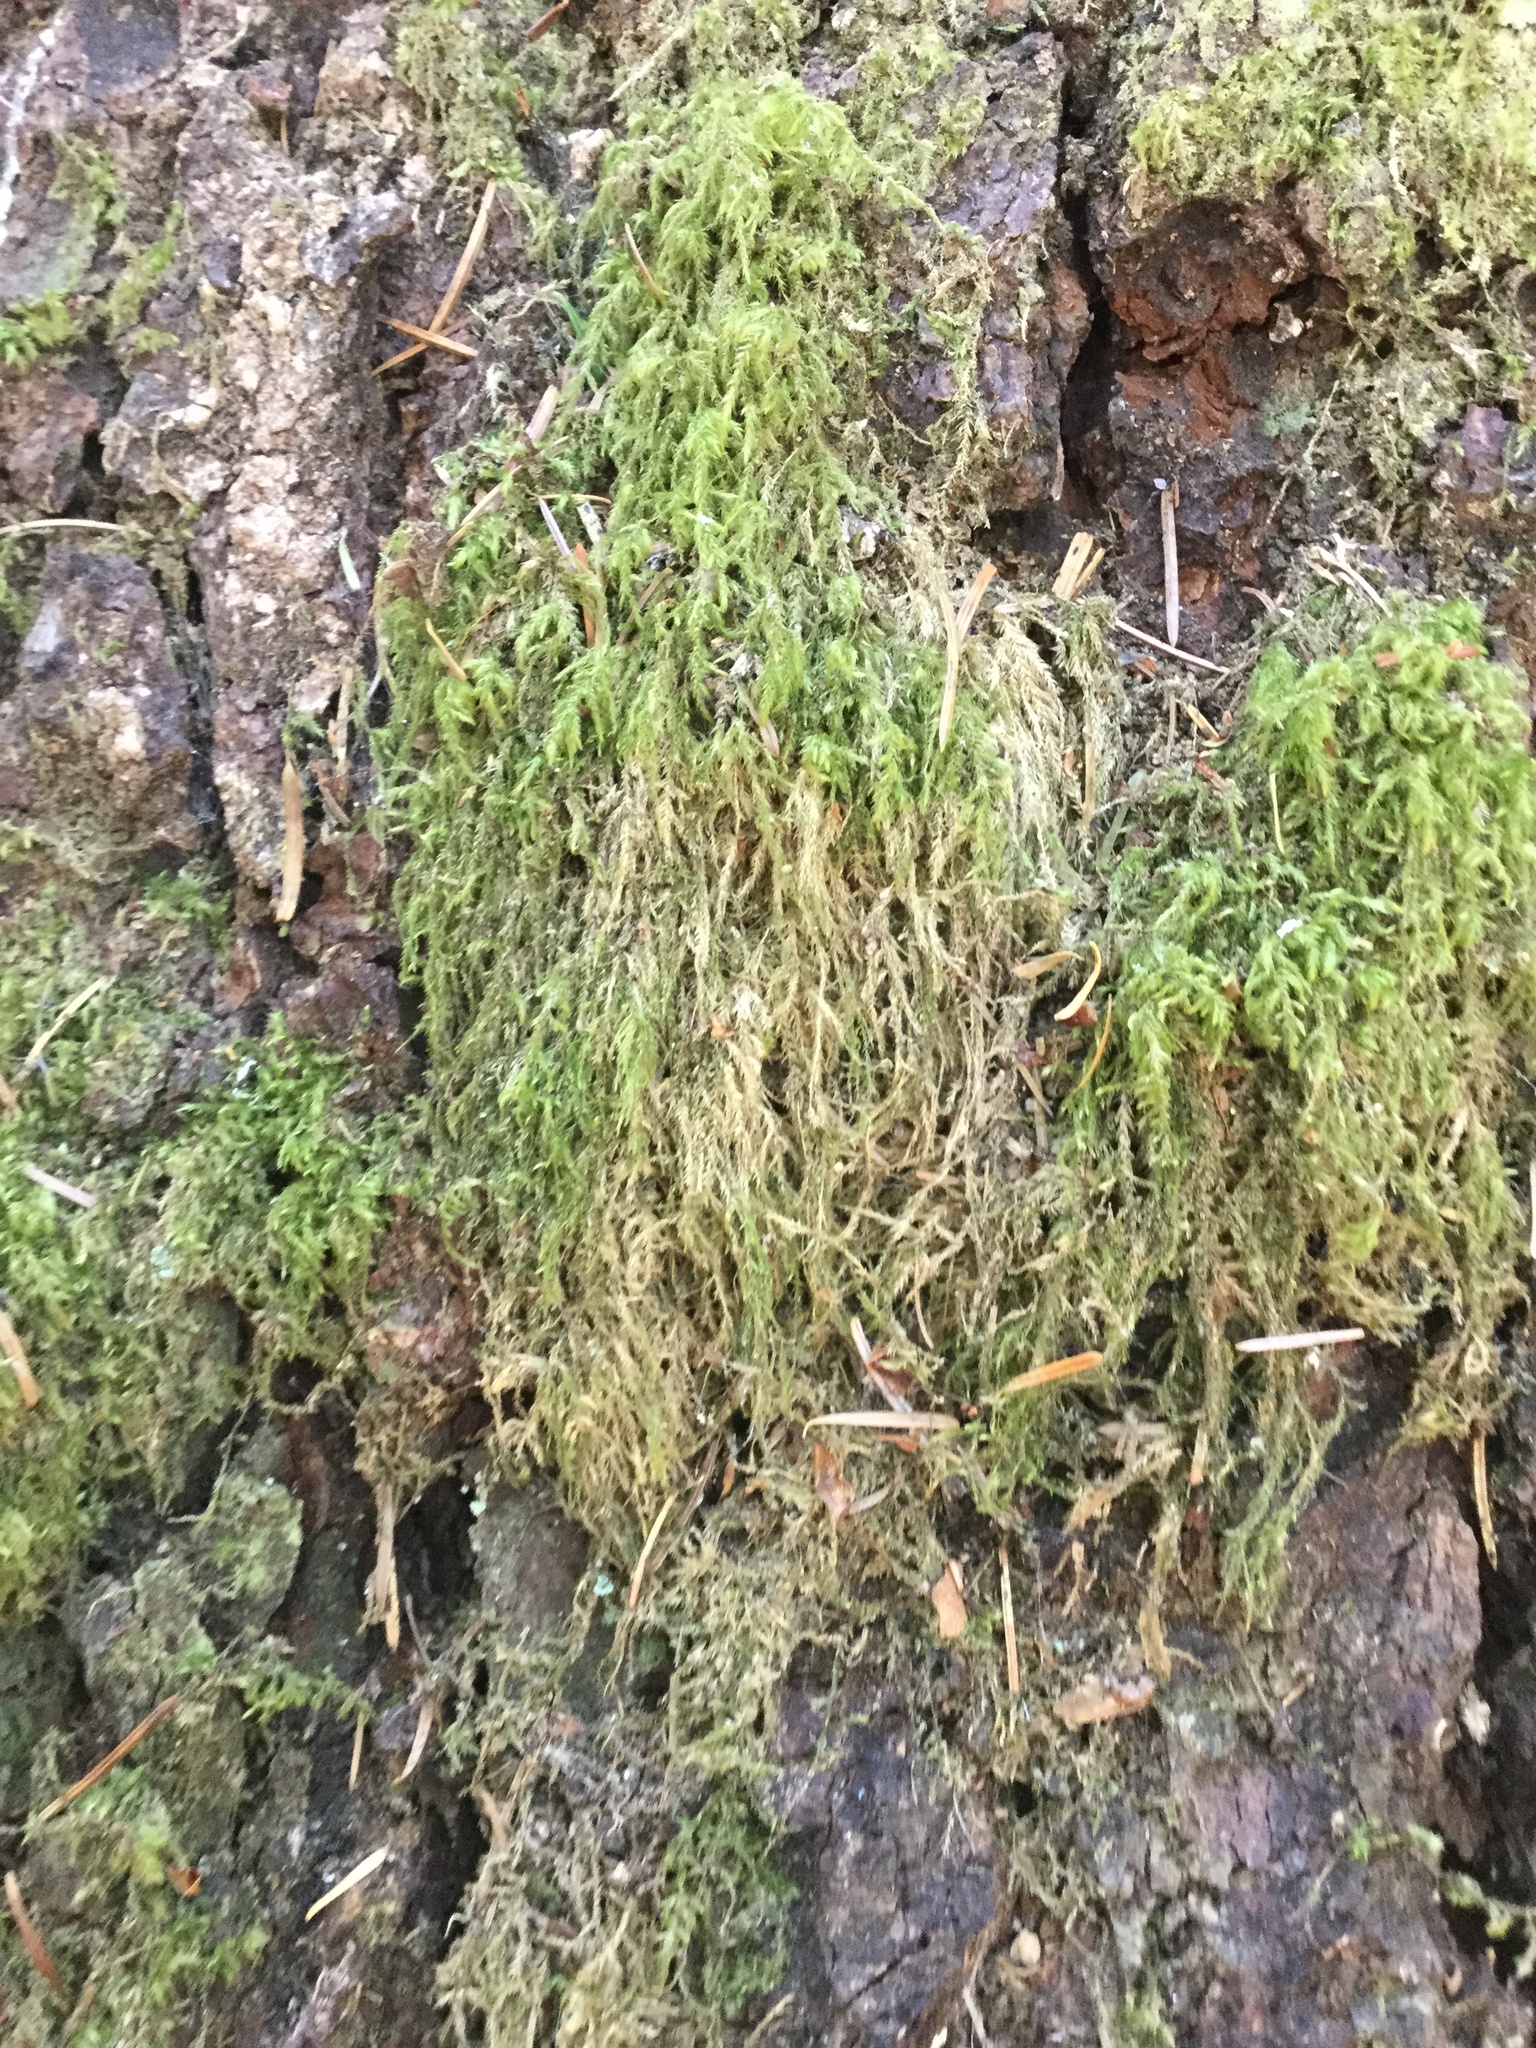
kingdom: Plantae
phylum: Bryophyta
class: Bryopsida
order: Hypnales
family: Lembophyllaceae
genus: Pseudisothecium
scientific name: Pseudisothecium stoloniferum
